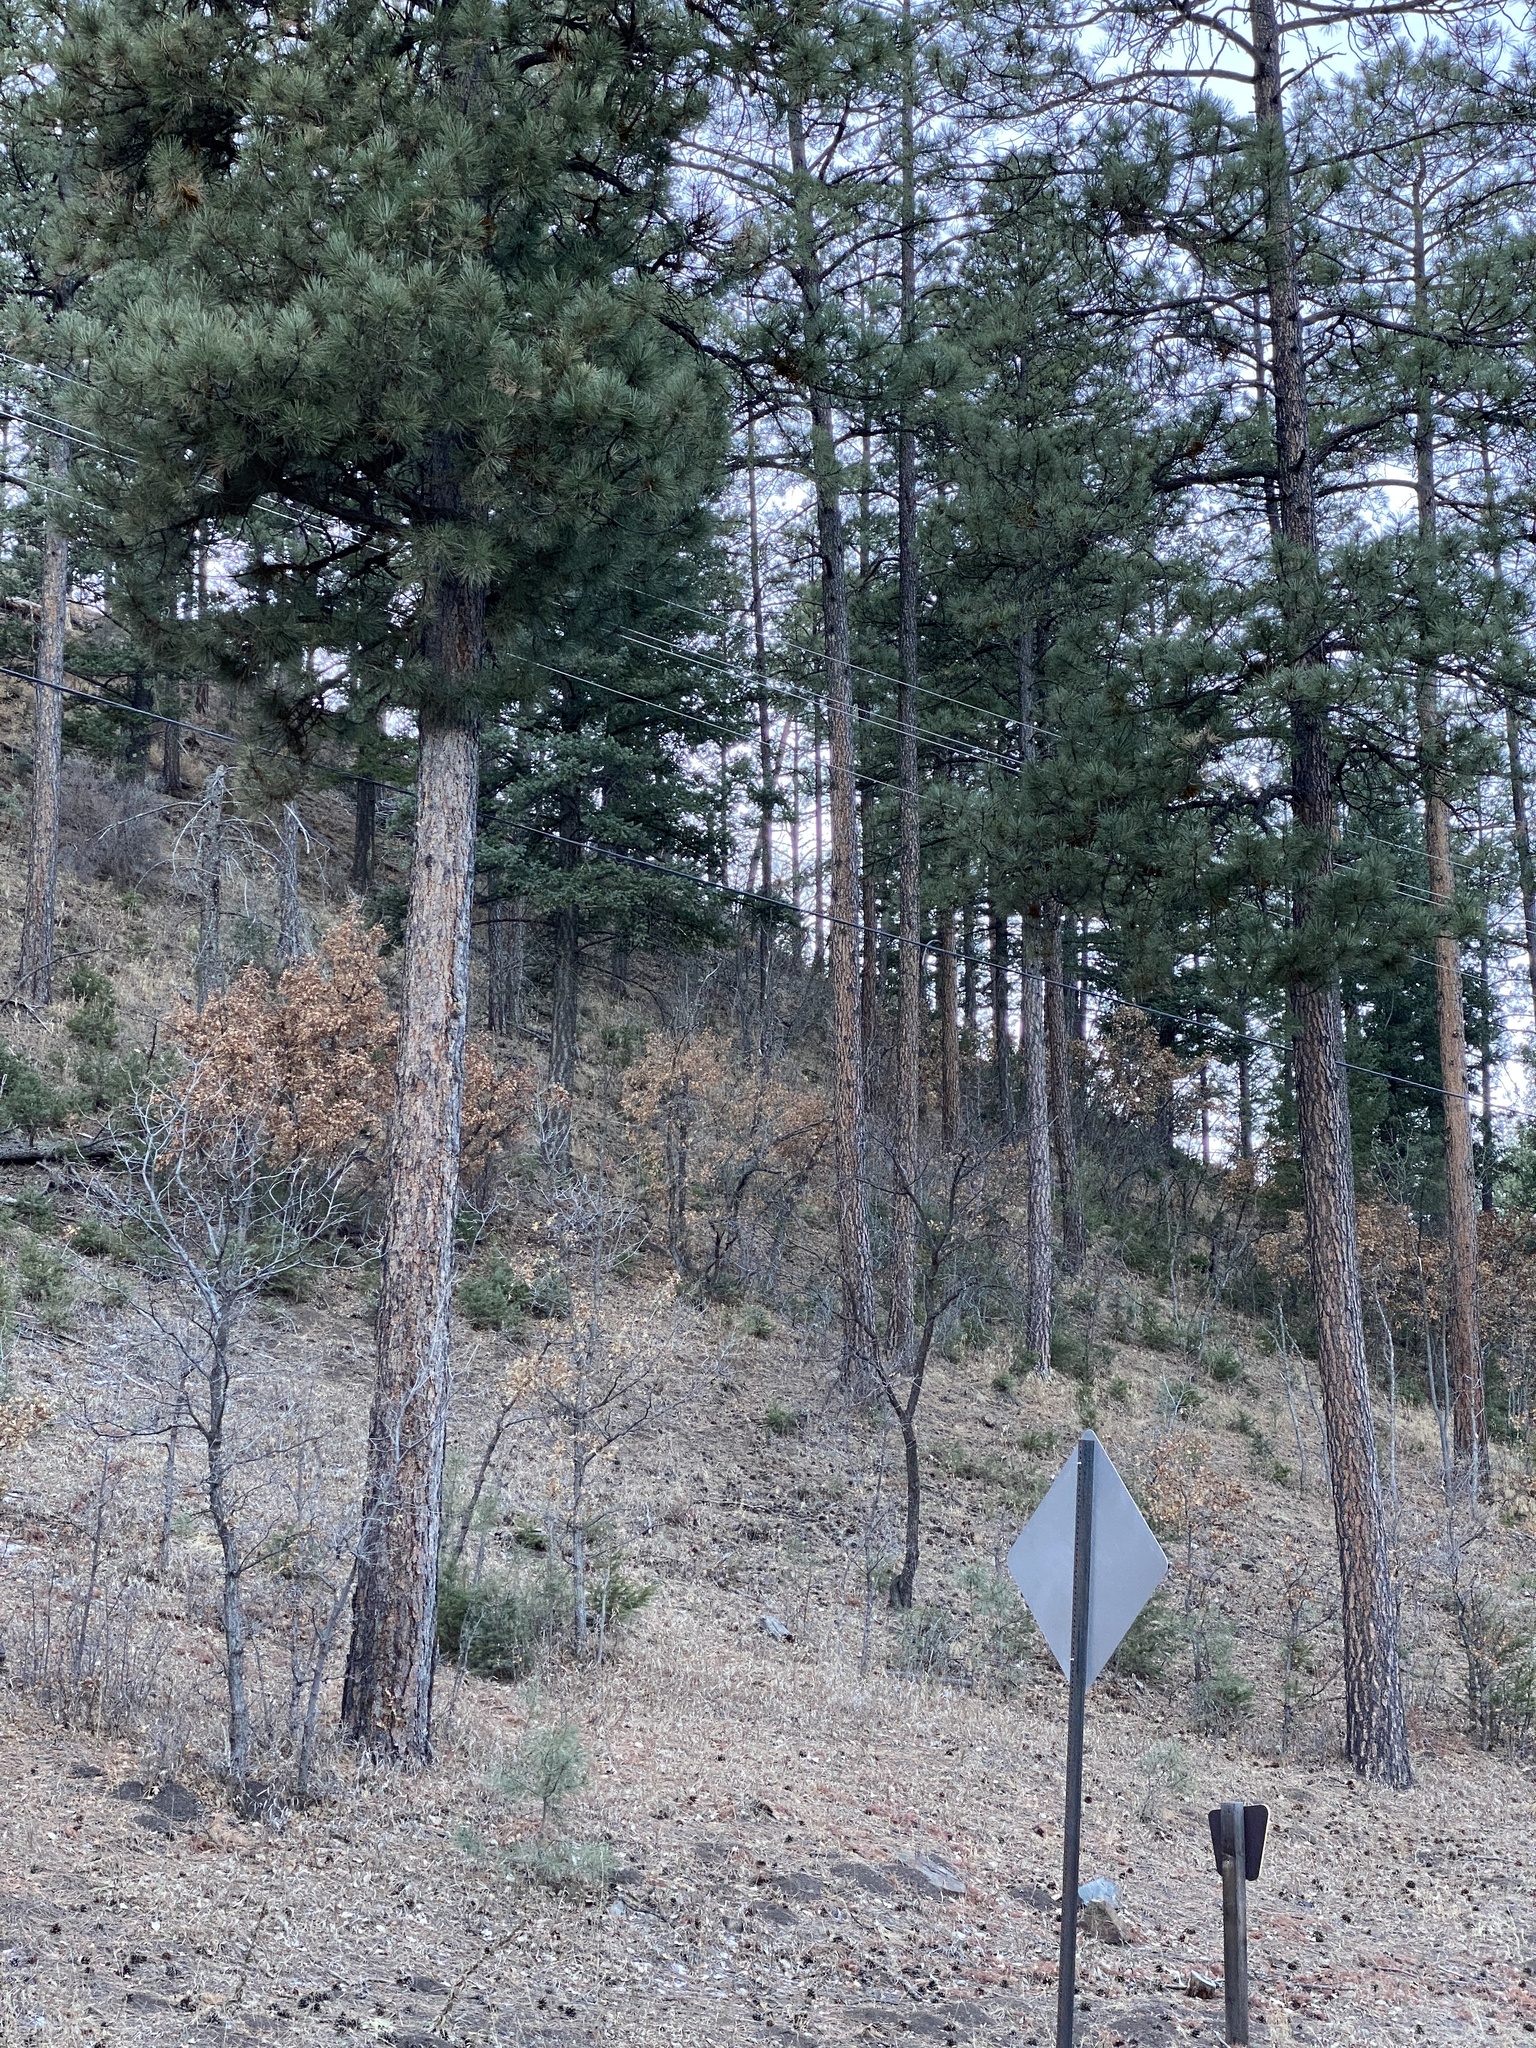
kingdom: Plantae
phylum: Tracheophyta
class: Pinopsida
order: Pinales
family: Pinaceae
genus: Pinus
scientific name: Pinus ponderosa
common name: Western yellow-pine
